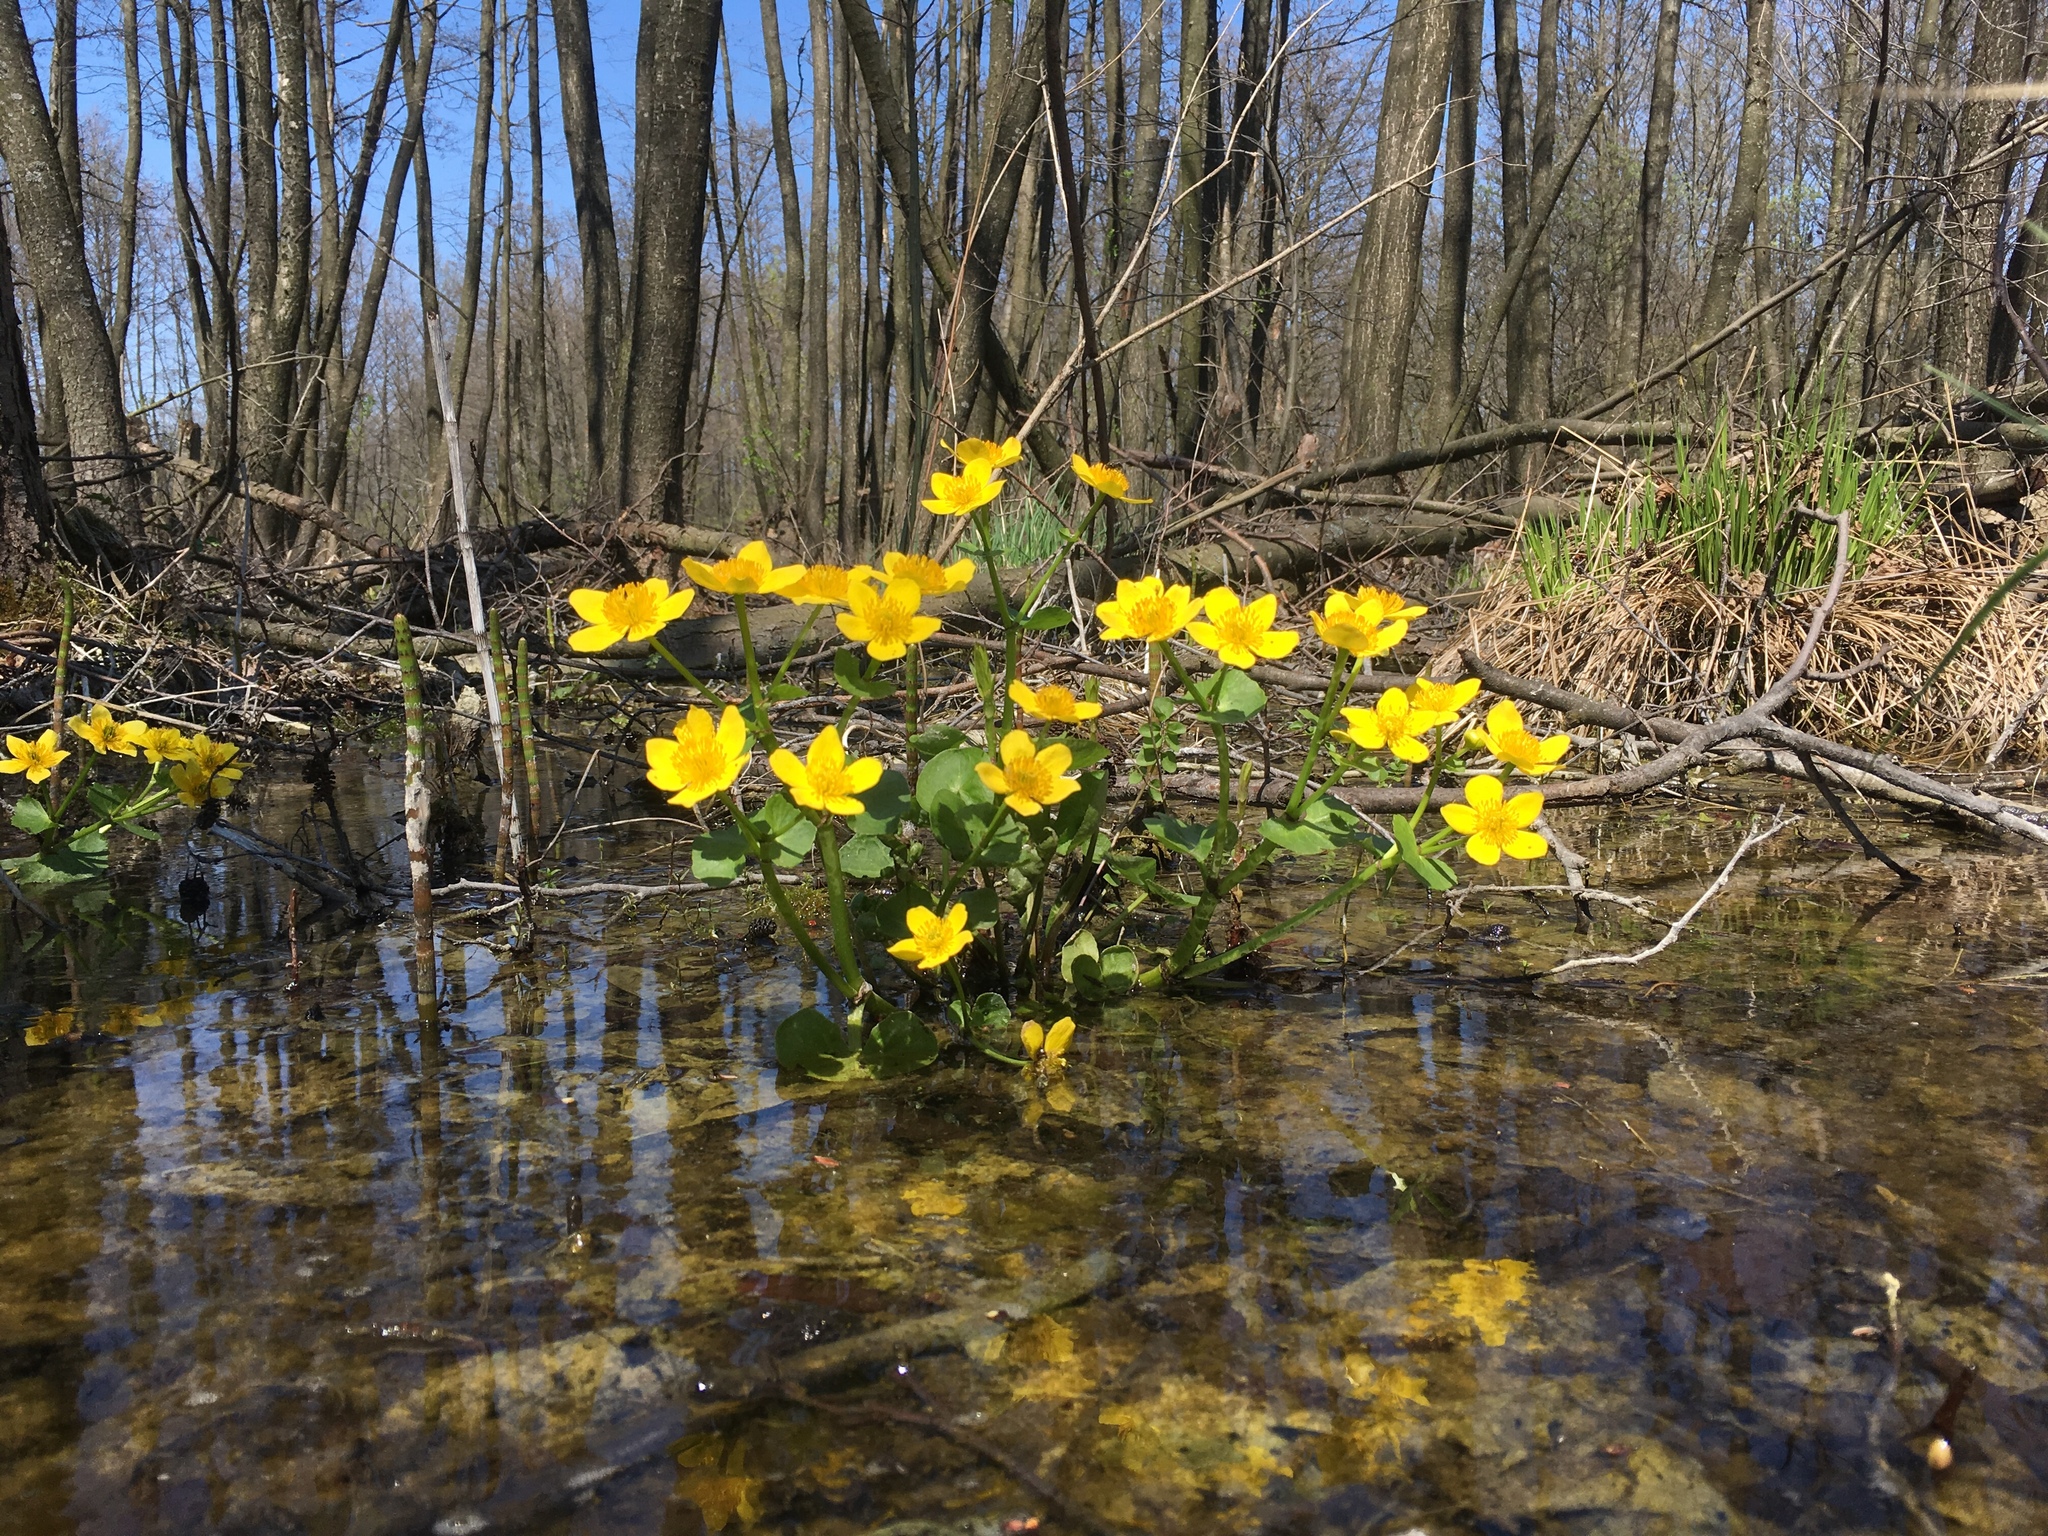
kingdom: Plantae
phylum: Tracheophyta
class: Magnoliopsida
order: Ranunculales
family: Ranunculaceae
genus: Caltha
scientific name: Caltha palustris
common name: Marsh marigold
